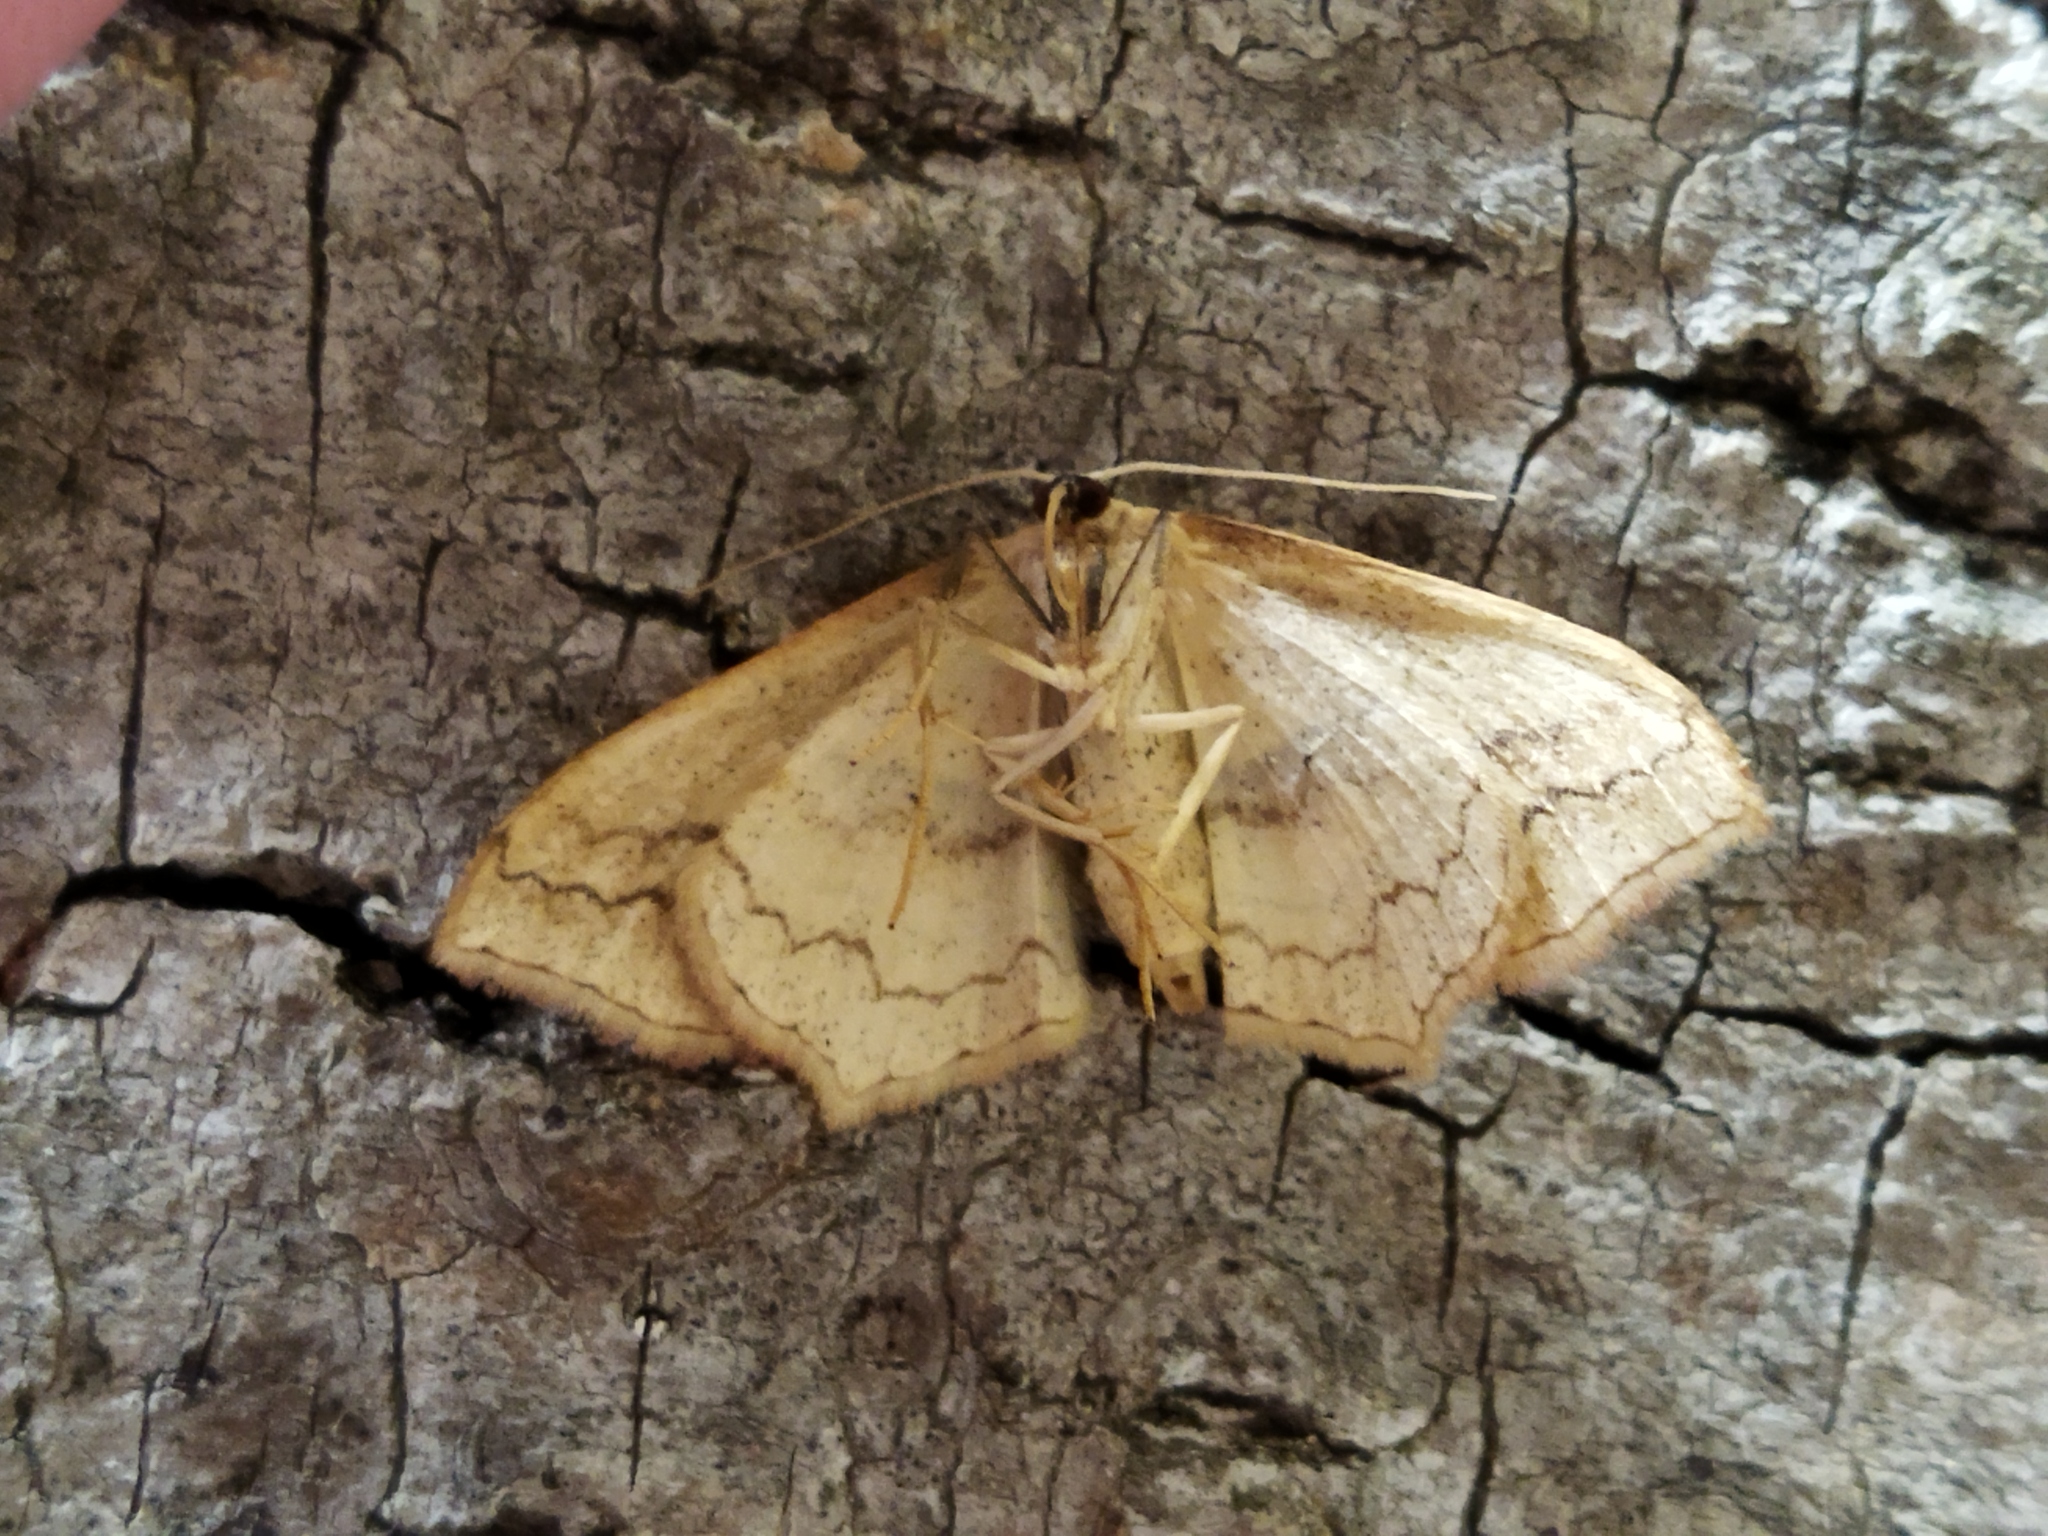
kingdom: Animalia
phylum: Arthropoda
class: Insecta
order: Lepidoptera
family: Geometridae
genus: Scopula
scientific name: Scopula imitaria
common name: Small blood-vein
